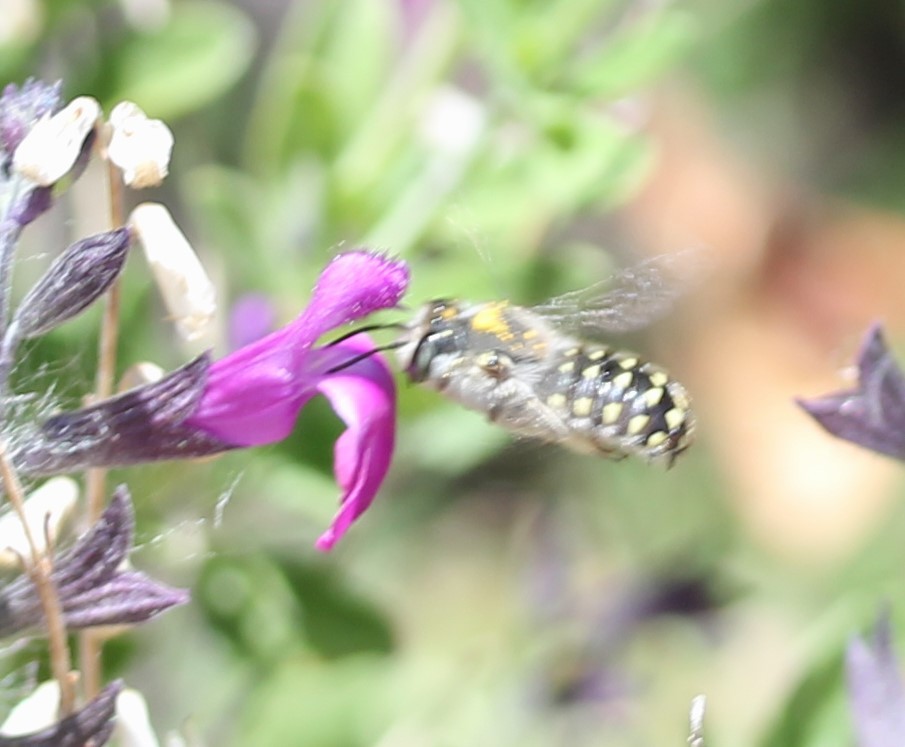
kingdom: Animalia
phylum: Arthropoda
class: Insecta
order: Hymenoptera
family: Megachilidae
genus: Anthidium
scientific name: Anthidium maculosum
